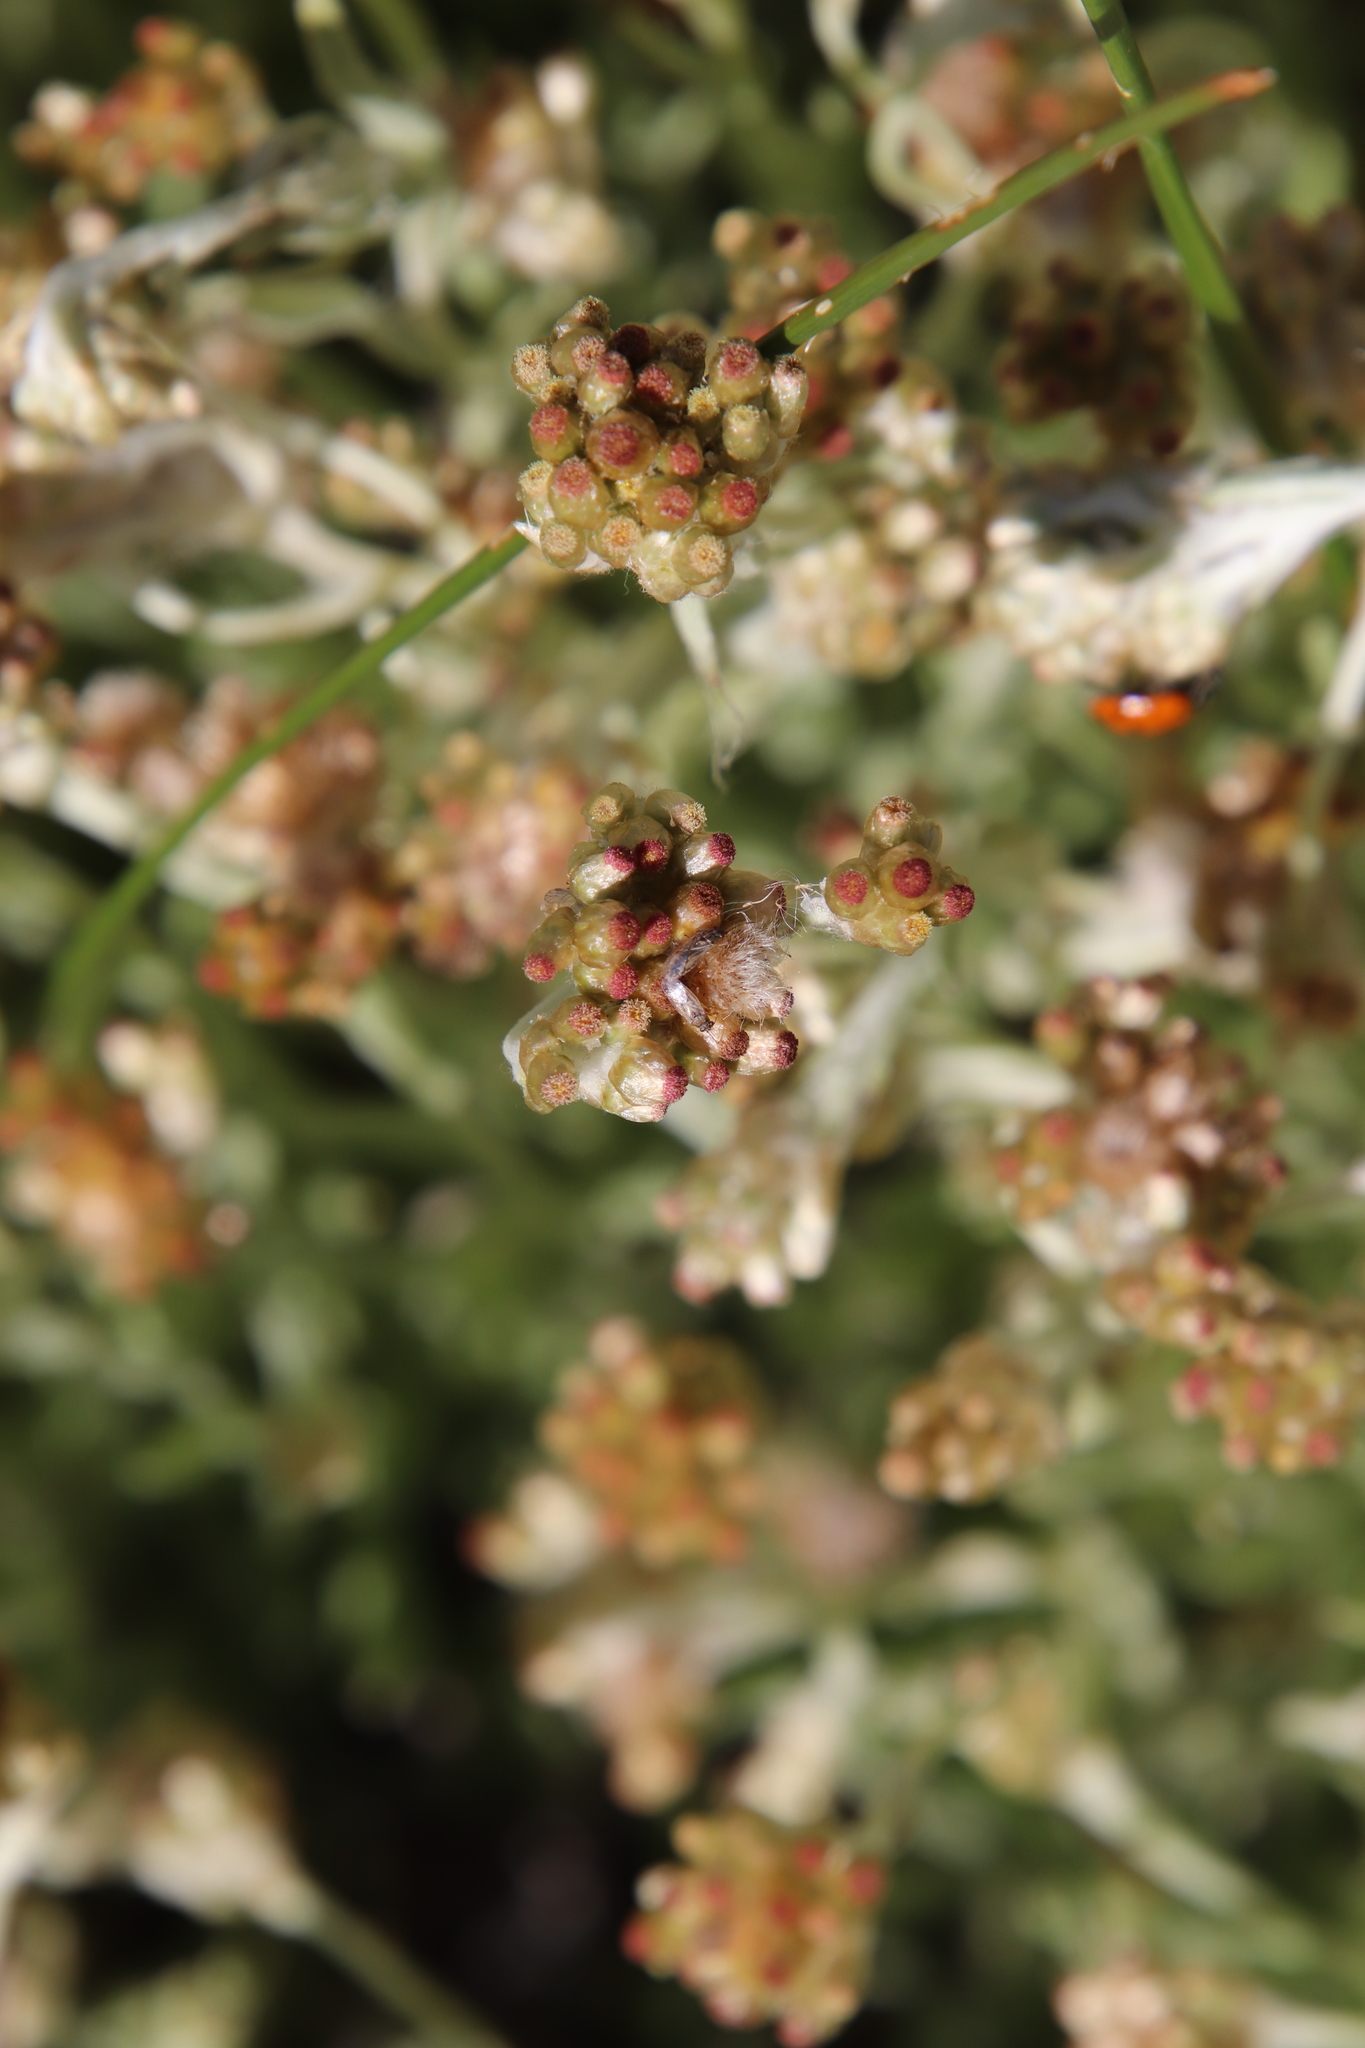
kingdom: Plantae
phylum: Tracheophyta
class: Magnoliopsida
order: Asterales
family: Asteraceae
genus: Helichrysum
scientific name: Helichrysum luteoalbum
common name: Daisy
